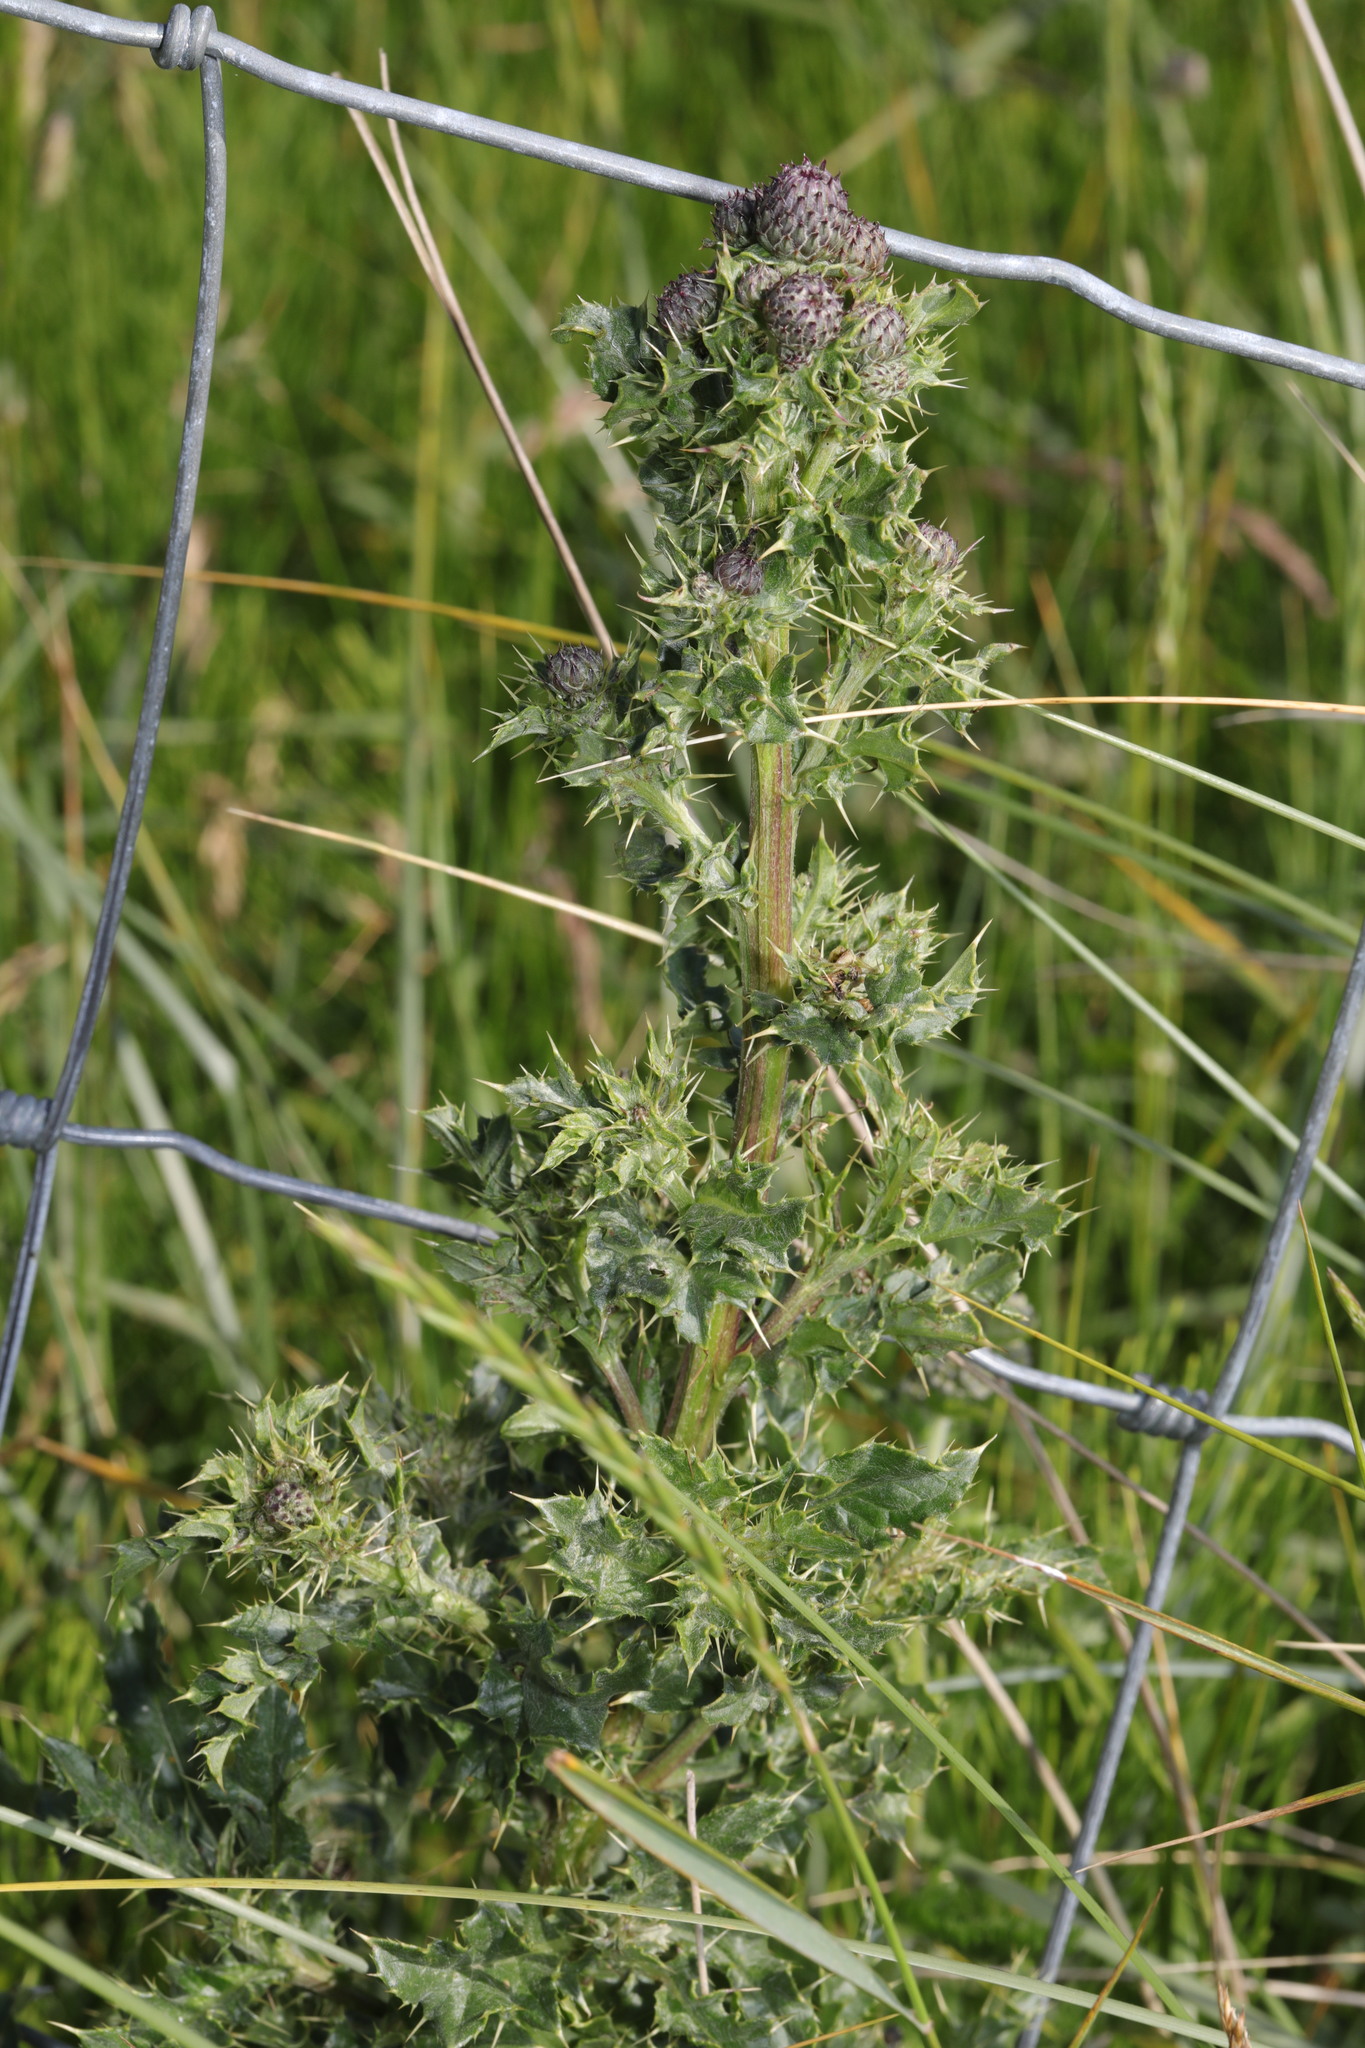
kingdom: Plantae
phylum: Tracheophyta
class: Magnoliopsida
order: Asterales
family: Asteraceae
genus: Cirsium
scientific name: Cirsium arvense
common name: Creeping thistle
